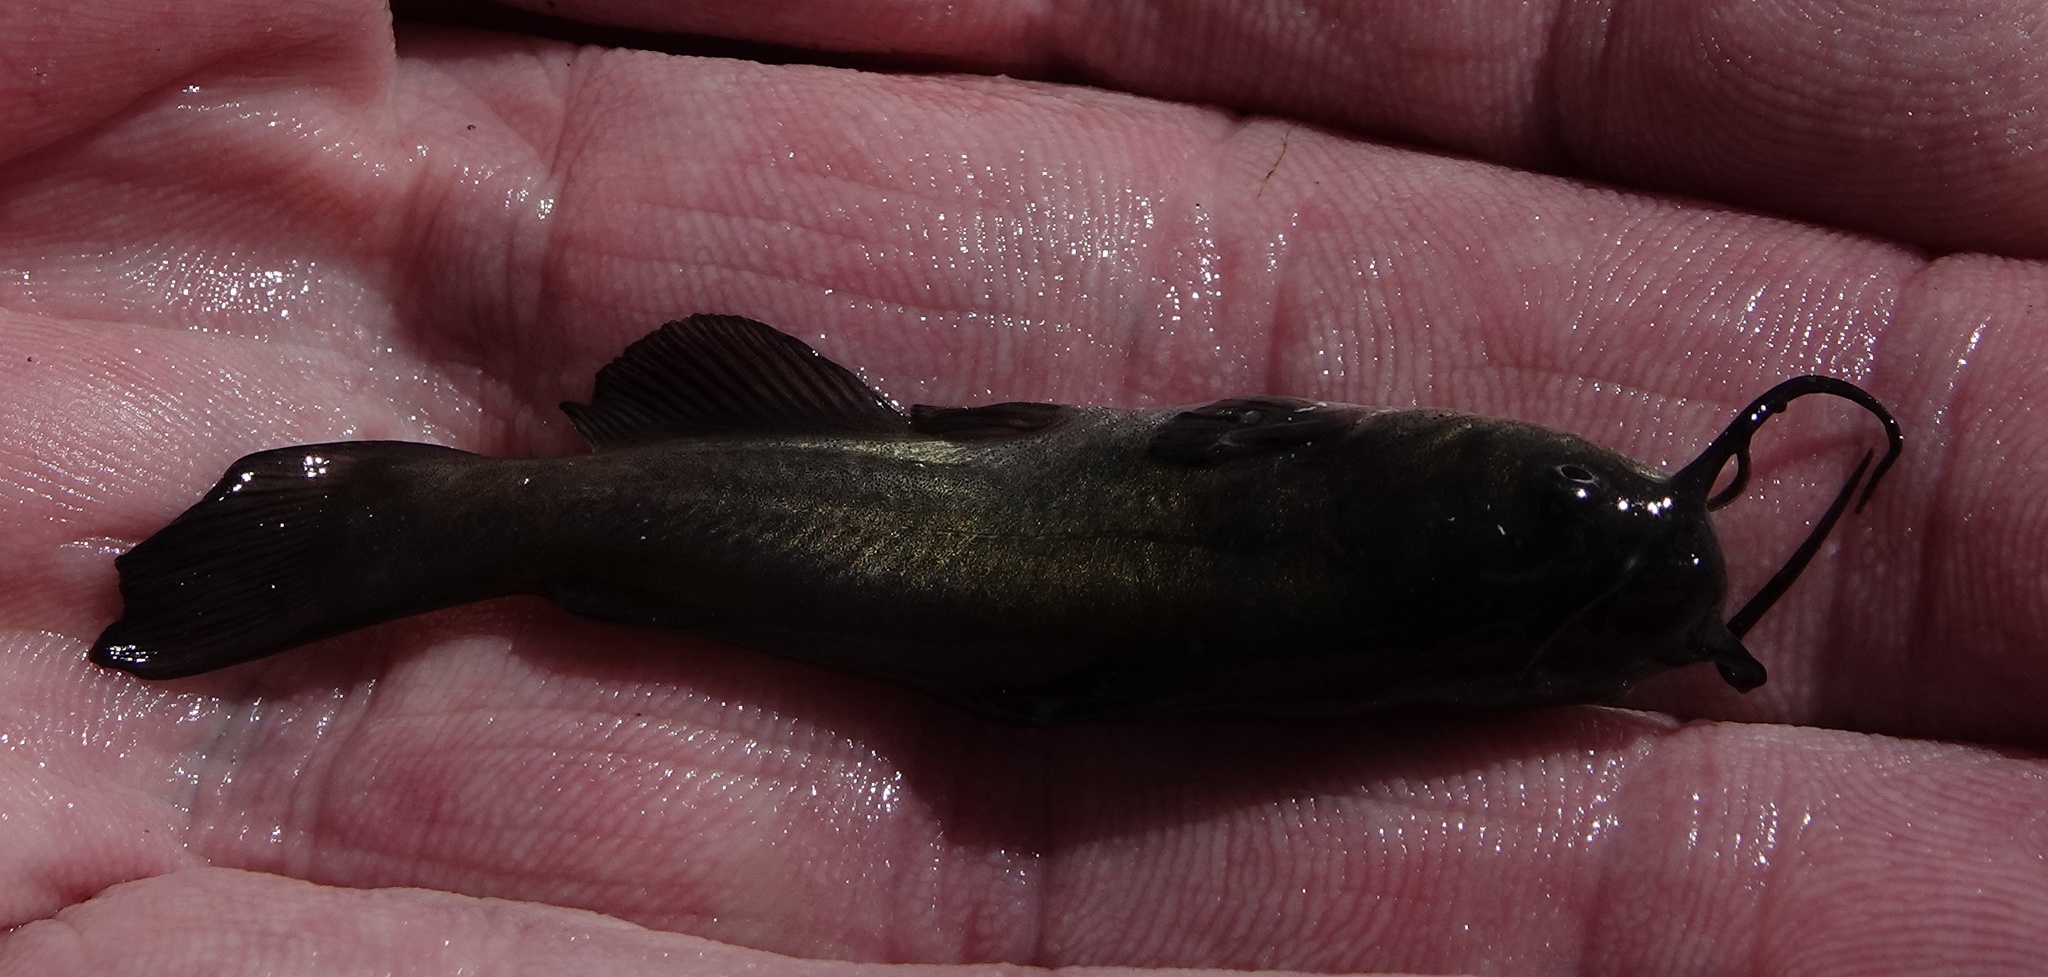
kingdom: Animalia
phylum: Chordata
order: Siluriformes
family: Ictaluridae
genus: Ameiurus
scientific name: Ameiurus melas
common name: Black bullhead
